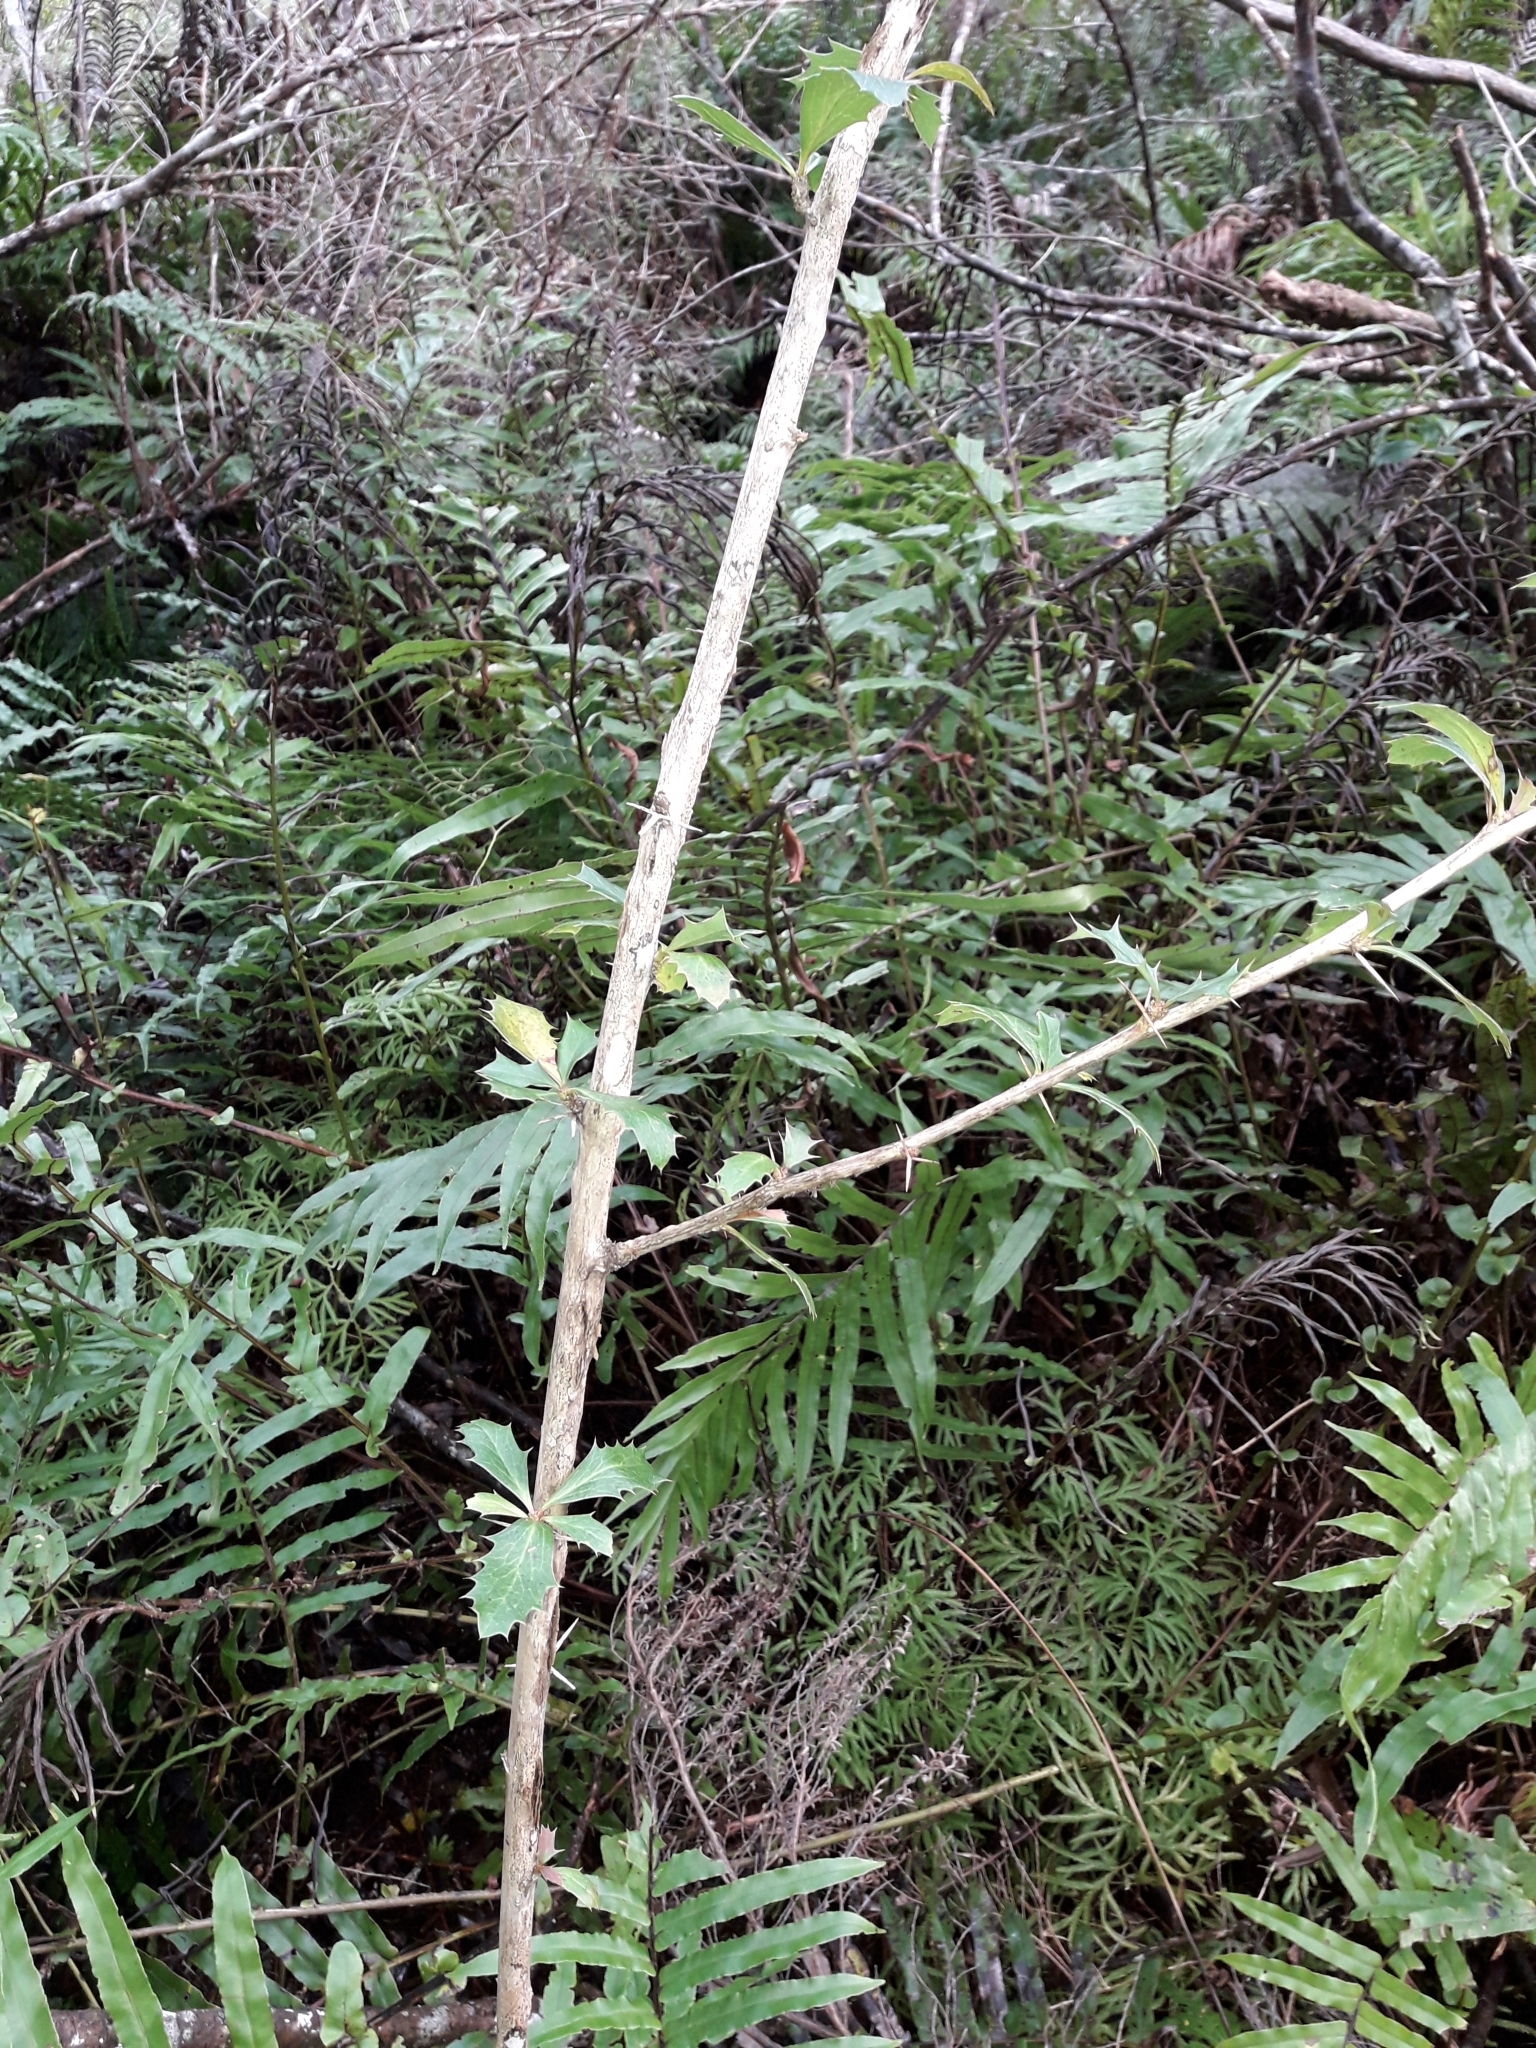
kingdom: Plantae
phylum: Tracheophyta
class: Magnoliopsida
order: Ranunculales
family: Berberidaceae
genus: Berberis
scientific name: Berberis glaucocarpa
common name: Great barberry
